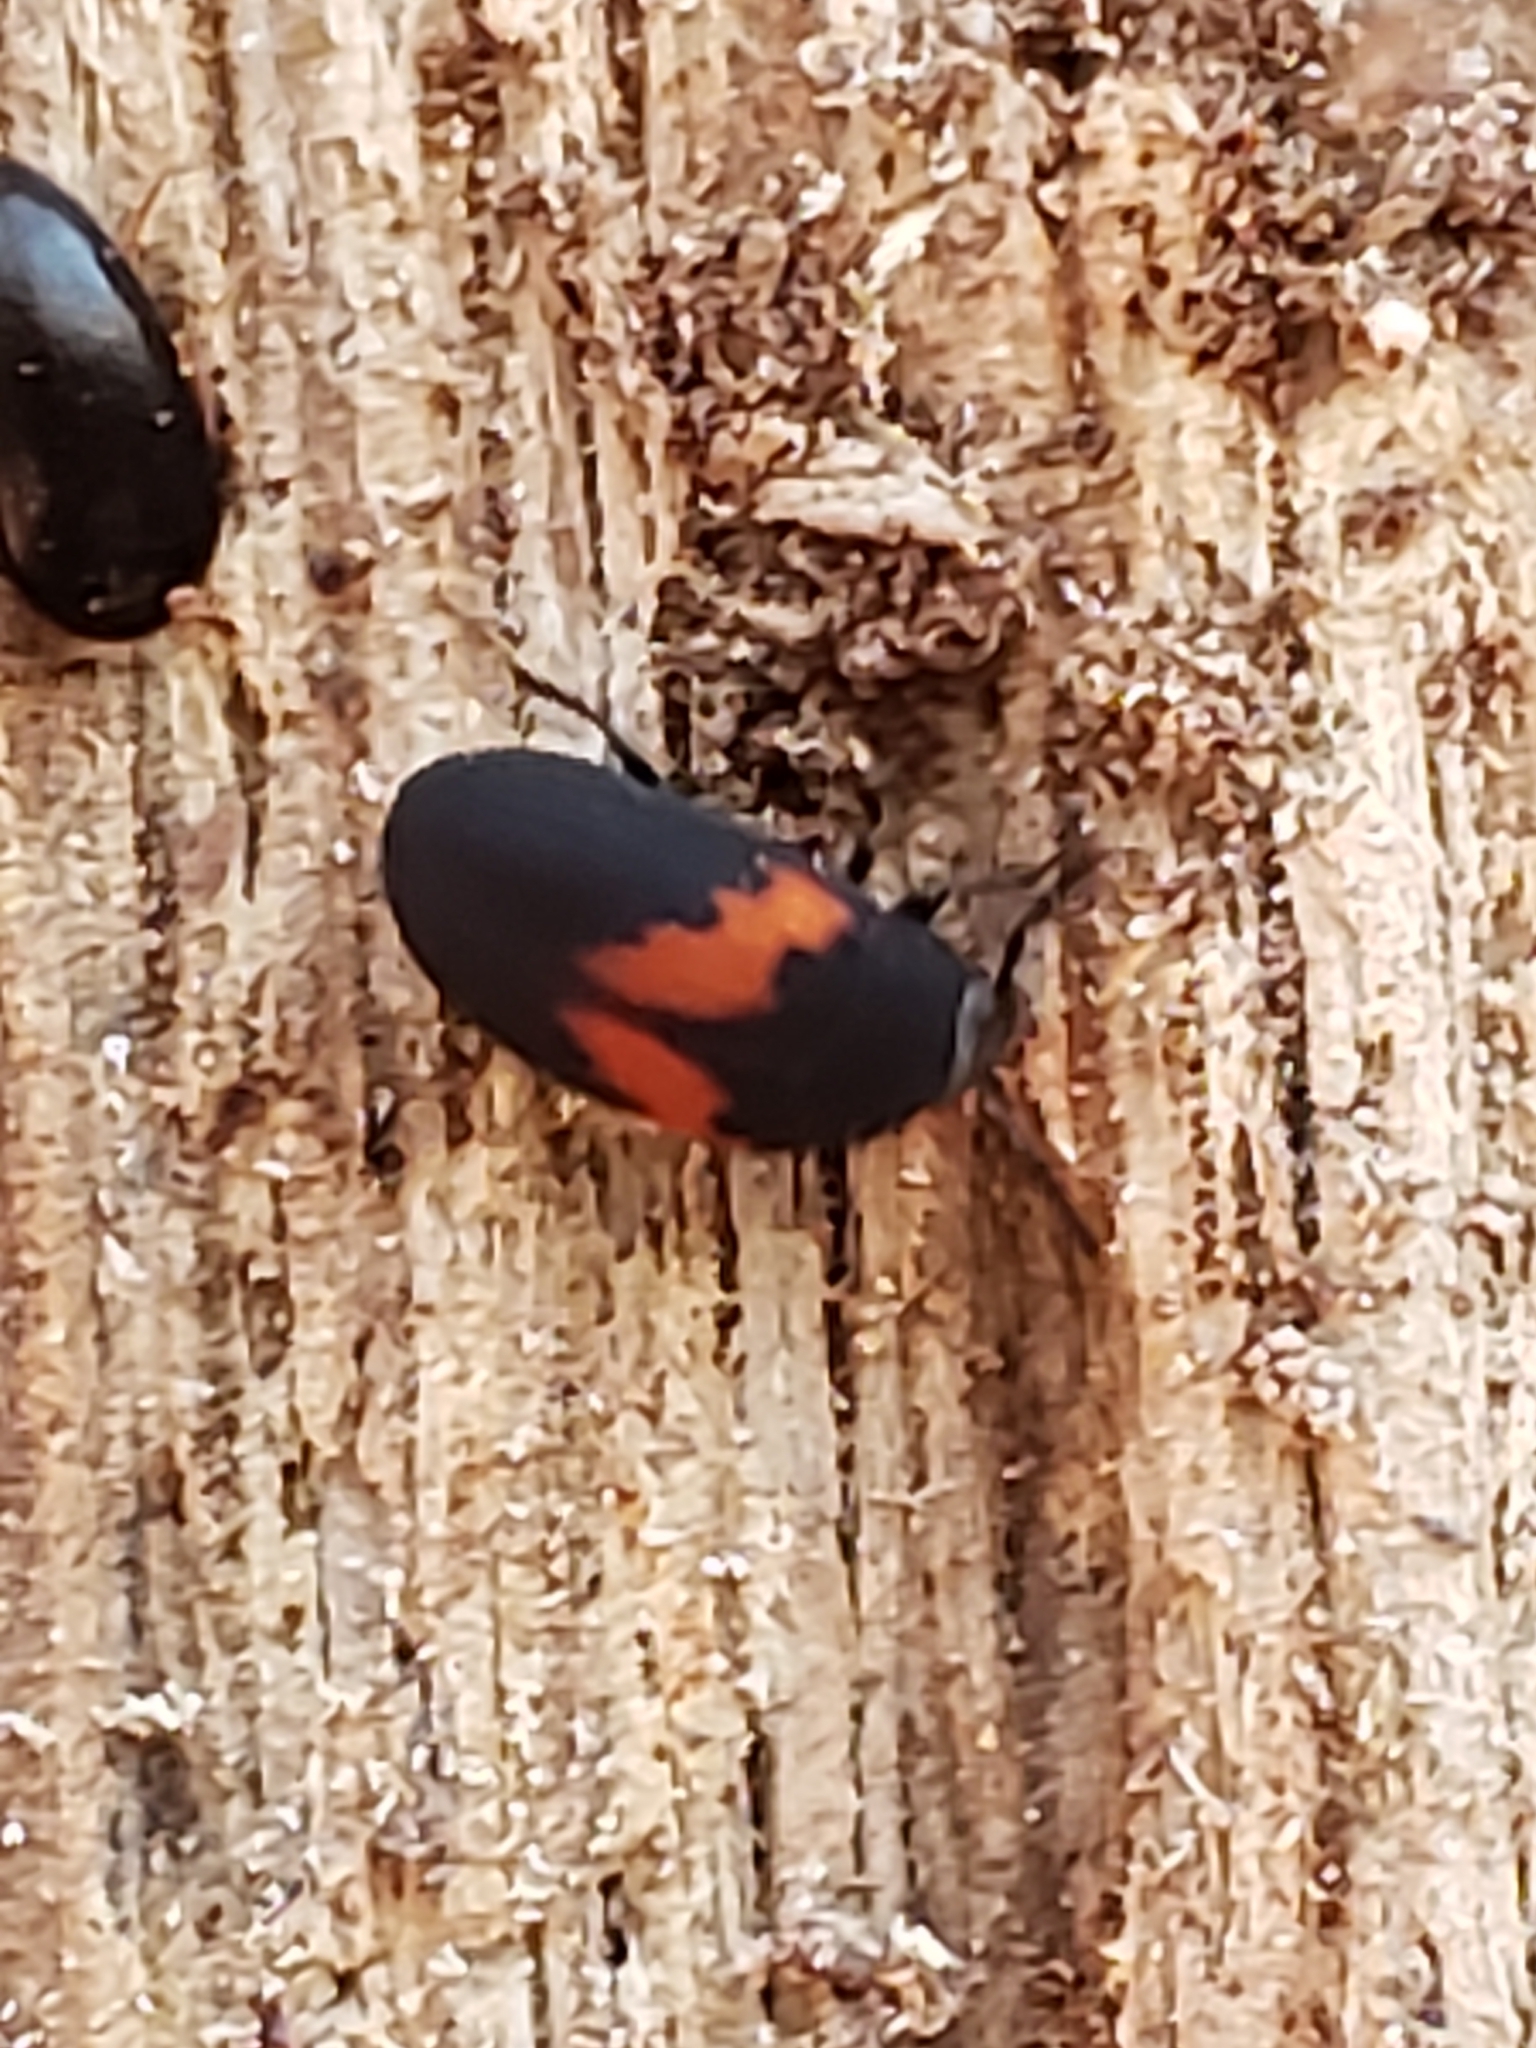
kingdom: Animalia
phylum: Arthropoda
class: Insecta
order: Coleoptera
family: Tenebrionidae
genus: Platydema
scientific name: Platydema elliptica
